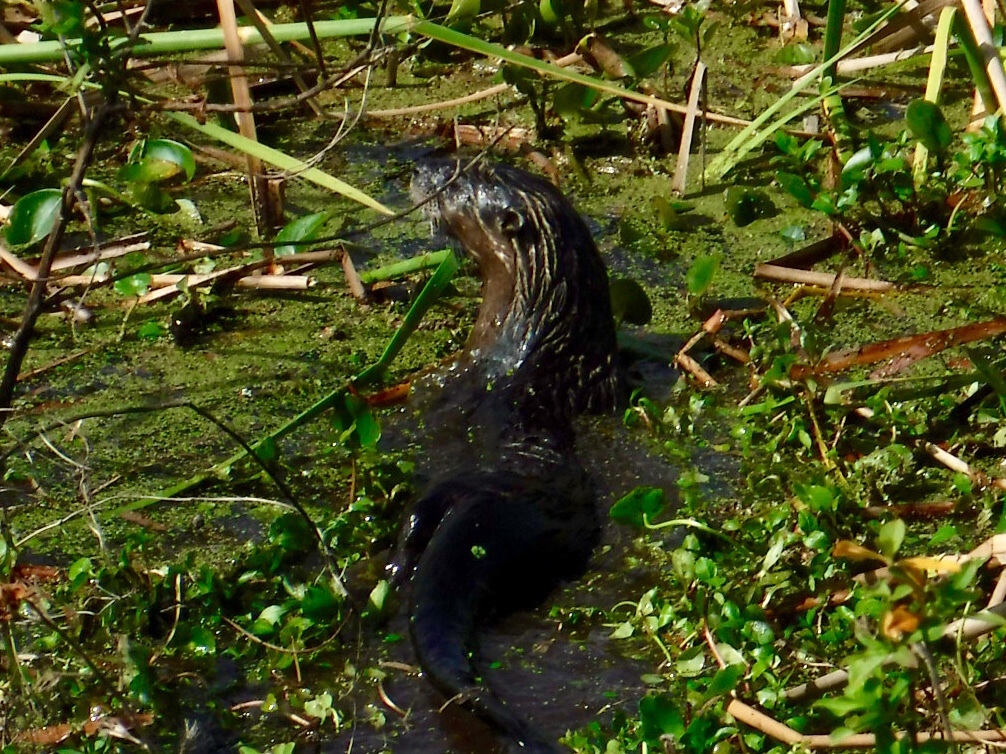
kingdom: Animalia
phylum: Chordata
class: Mammalia
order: Carnivora
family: Mustelidae
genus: Lontra
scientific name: Lontra canadensis
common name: North american river otter
